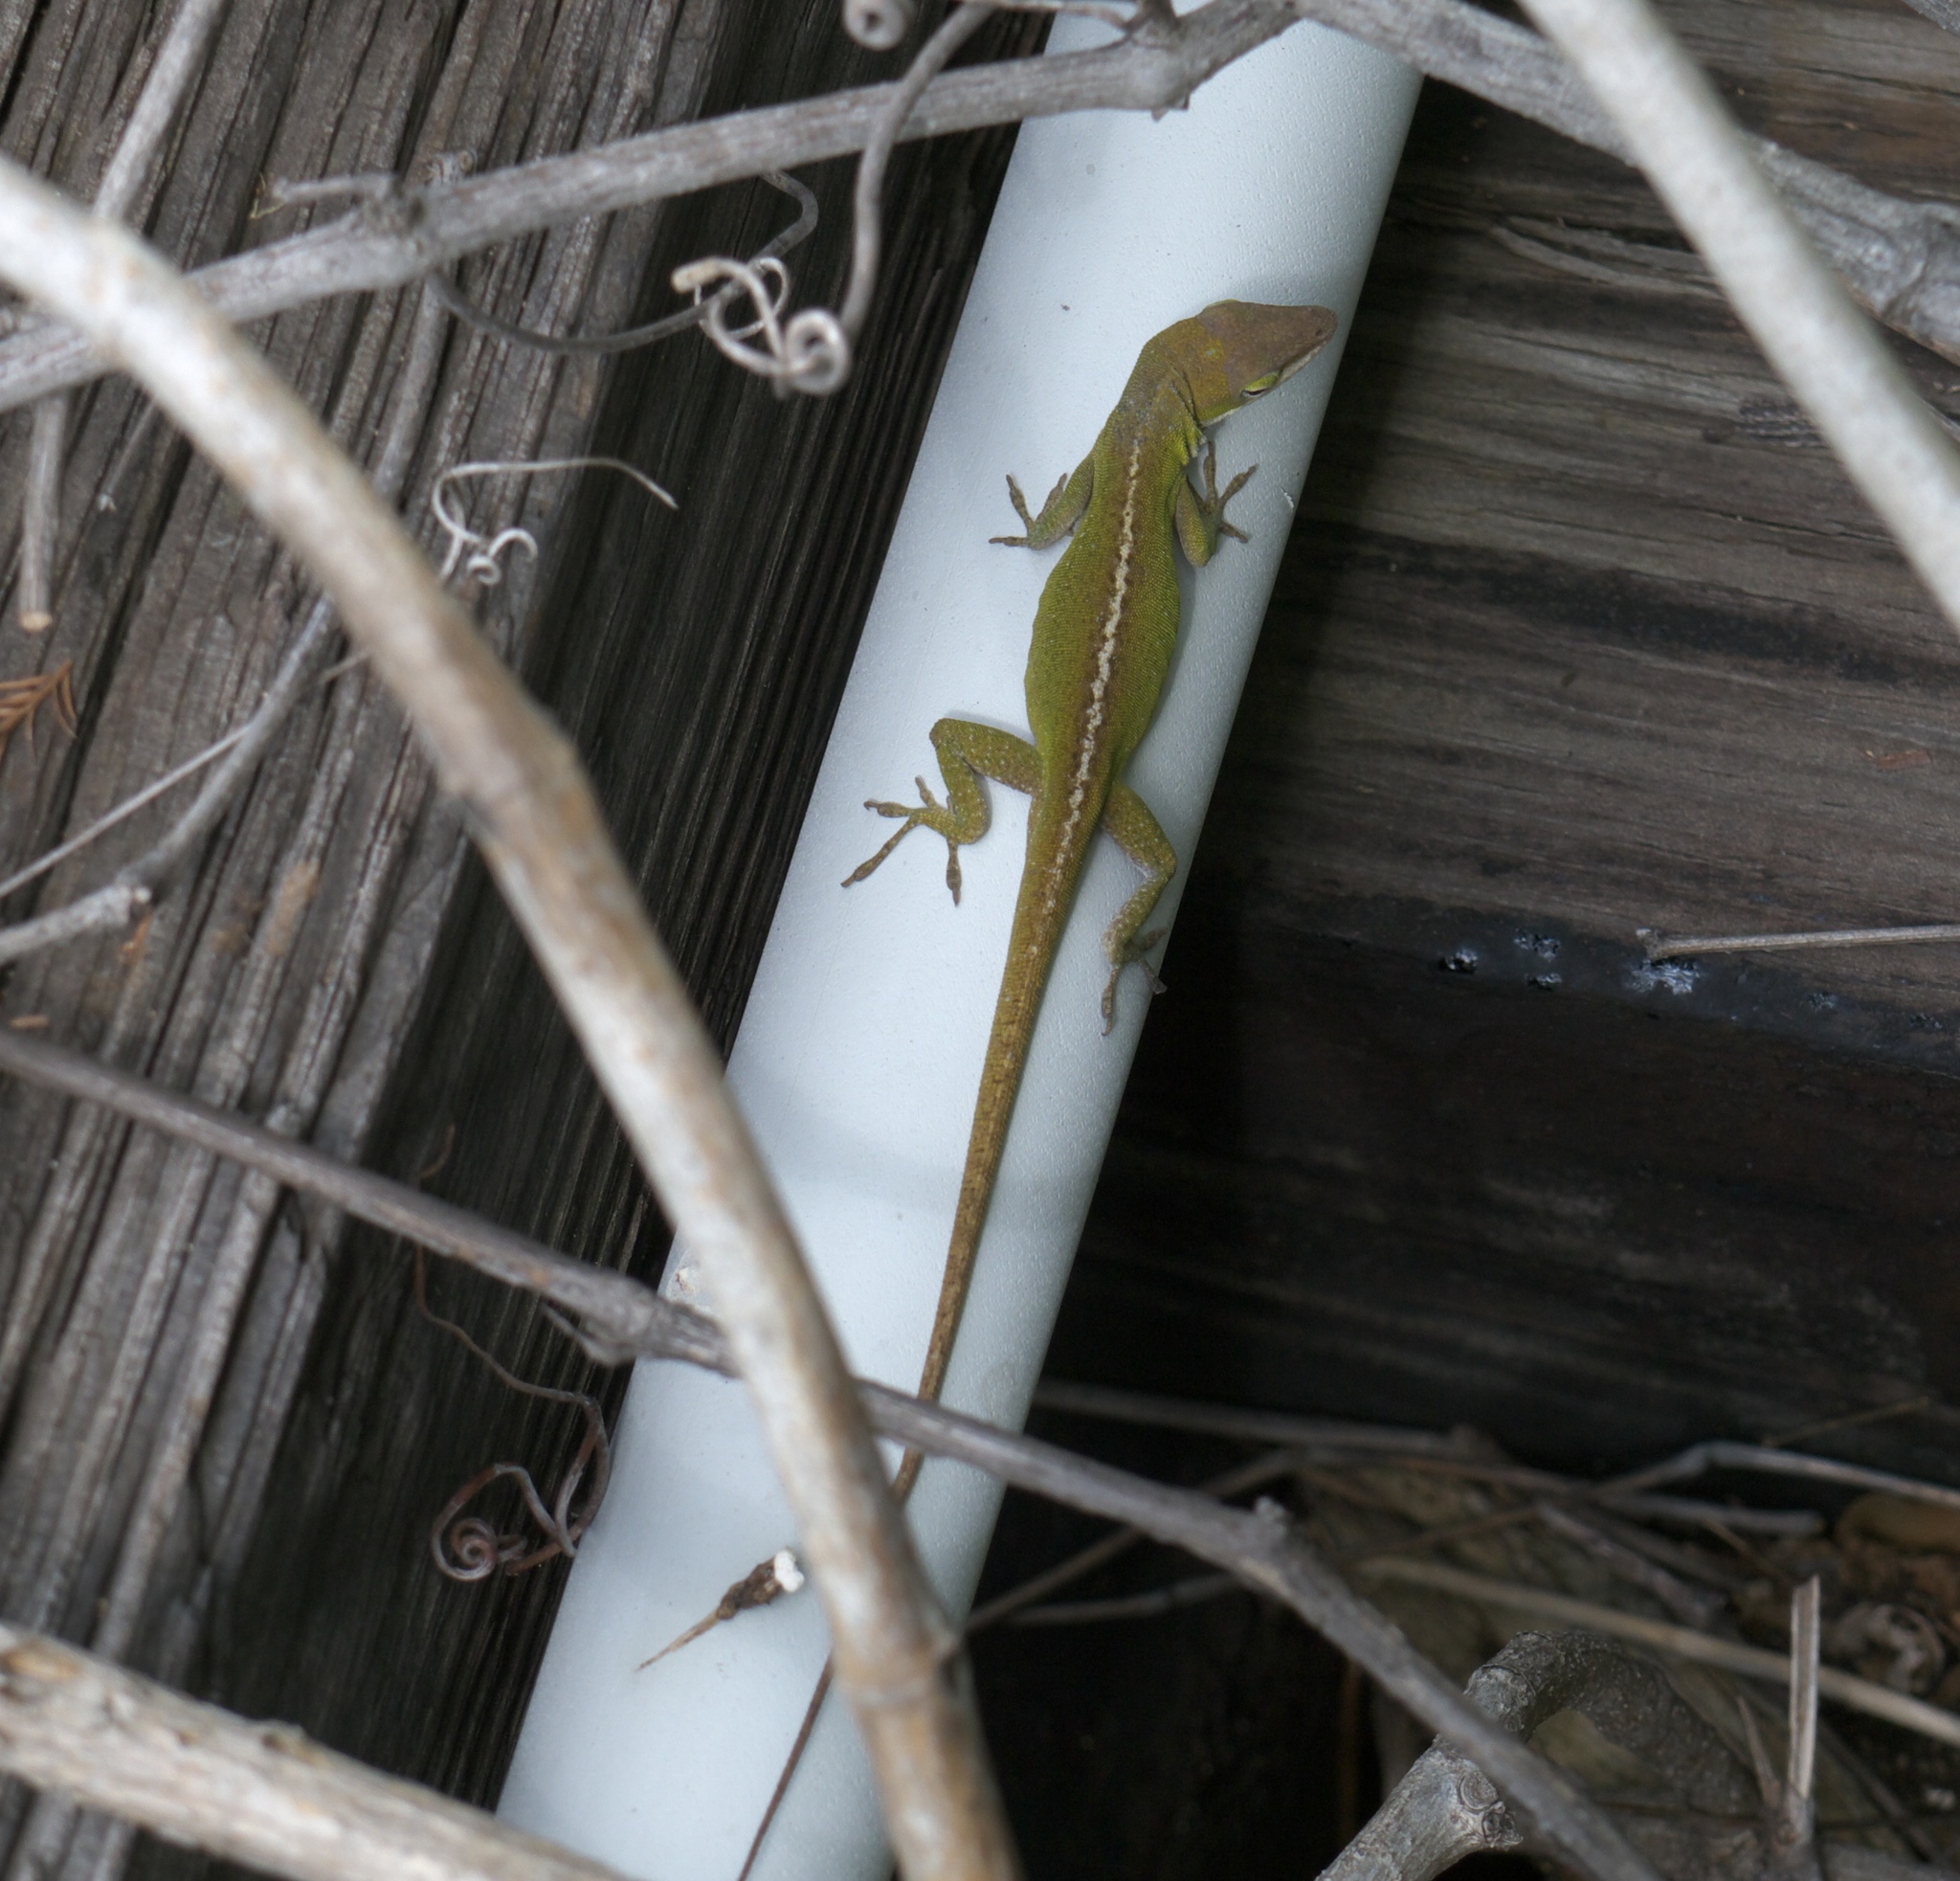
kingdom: Animalia
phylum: Chordata
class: Squamata
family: Dactyloidae
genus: Anolis
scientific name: Anolis carolinensis
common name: Green anole
